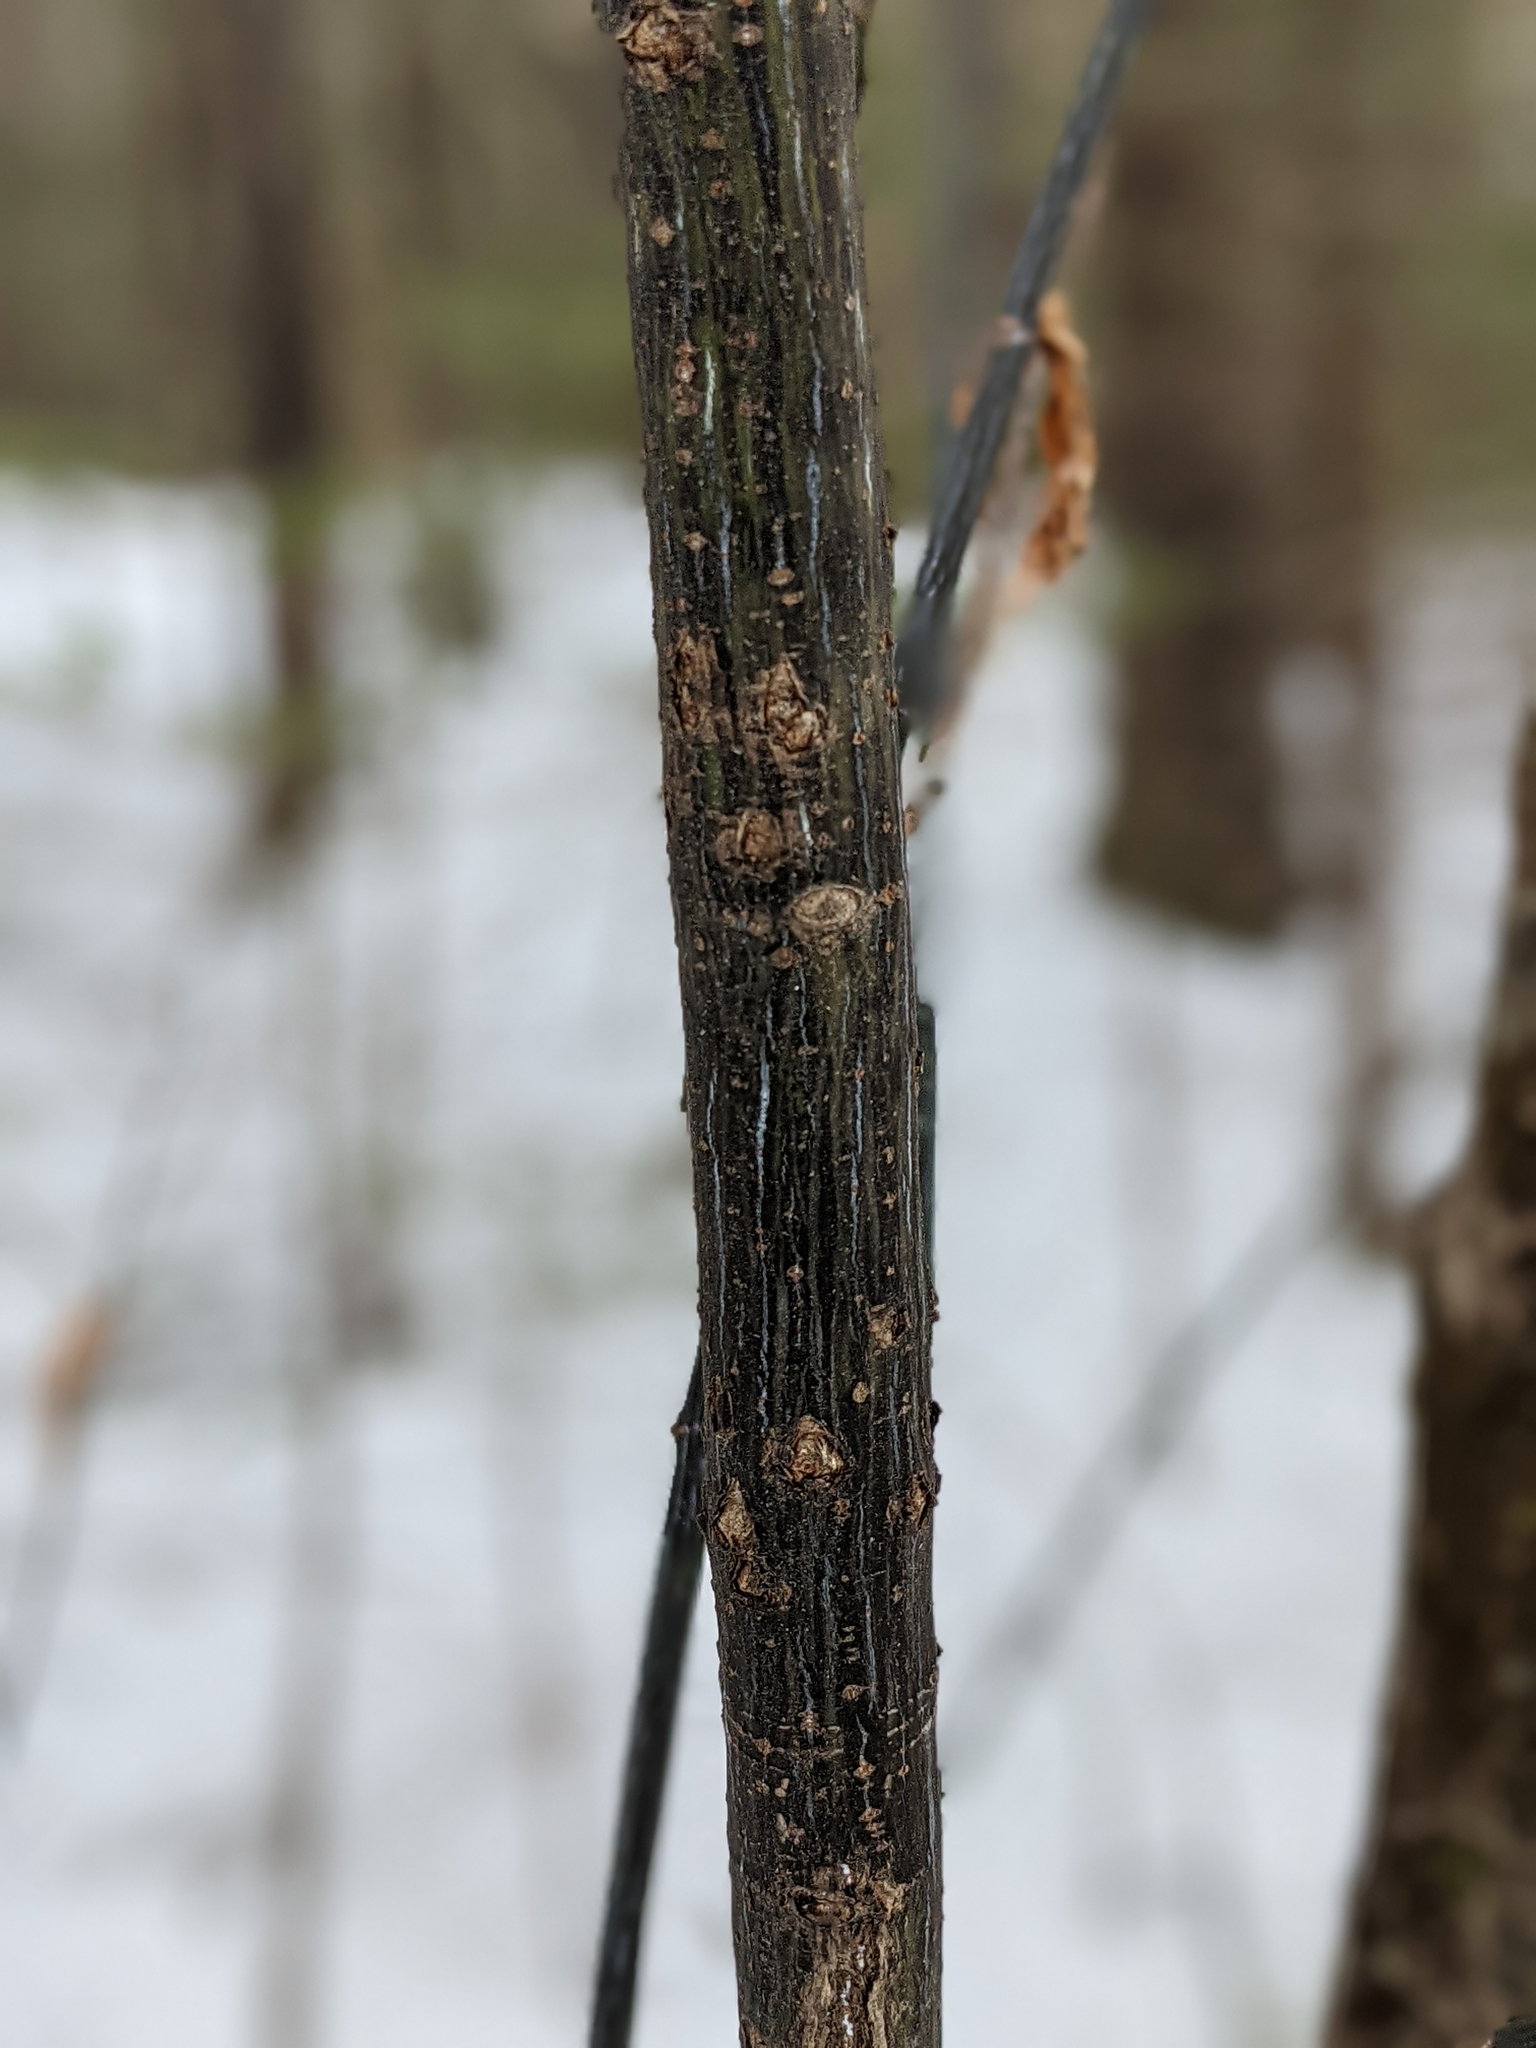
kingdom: Plantae
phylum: Tracheophyta
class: Magnoliopsida
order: Sapindales
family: Sapindaceae
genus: Acer
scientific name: Acer pensylvanicum
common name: Moosewood
